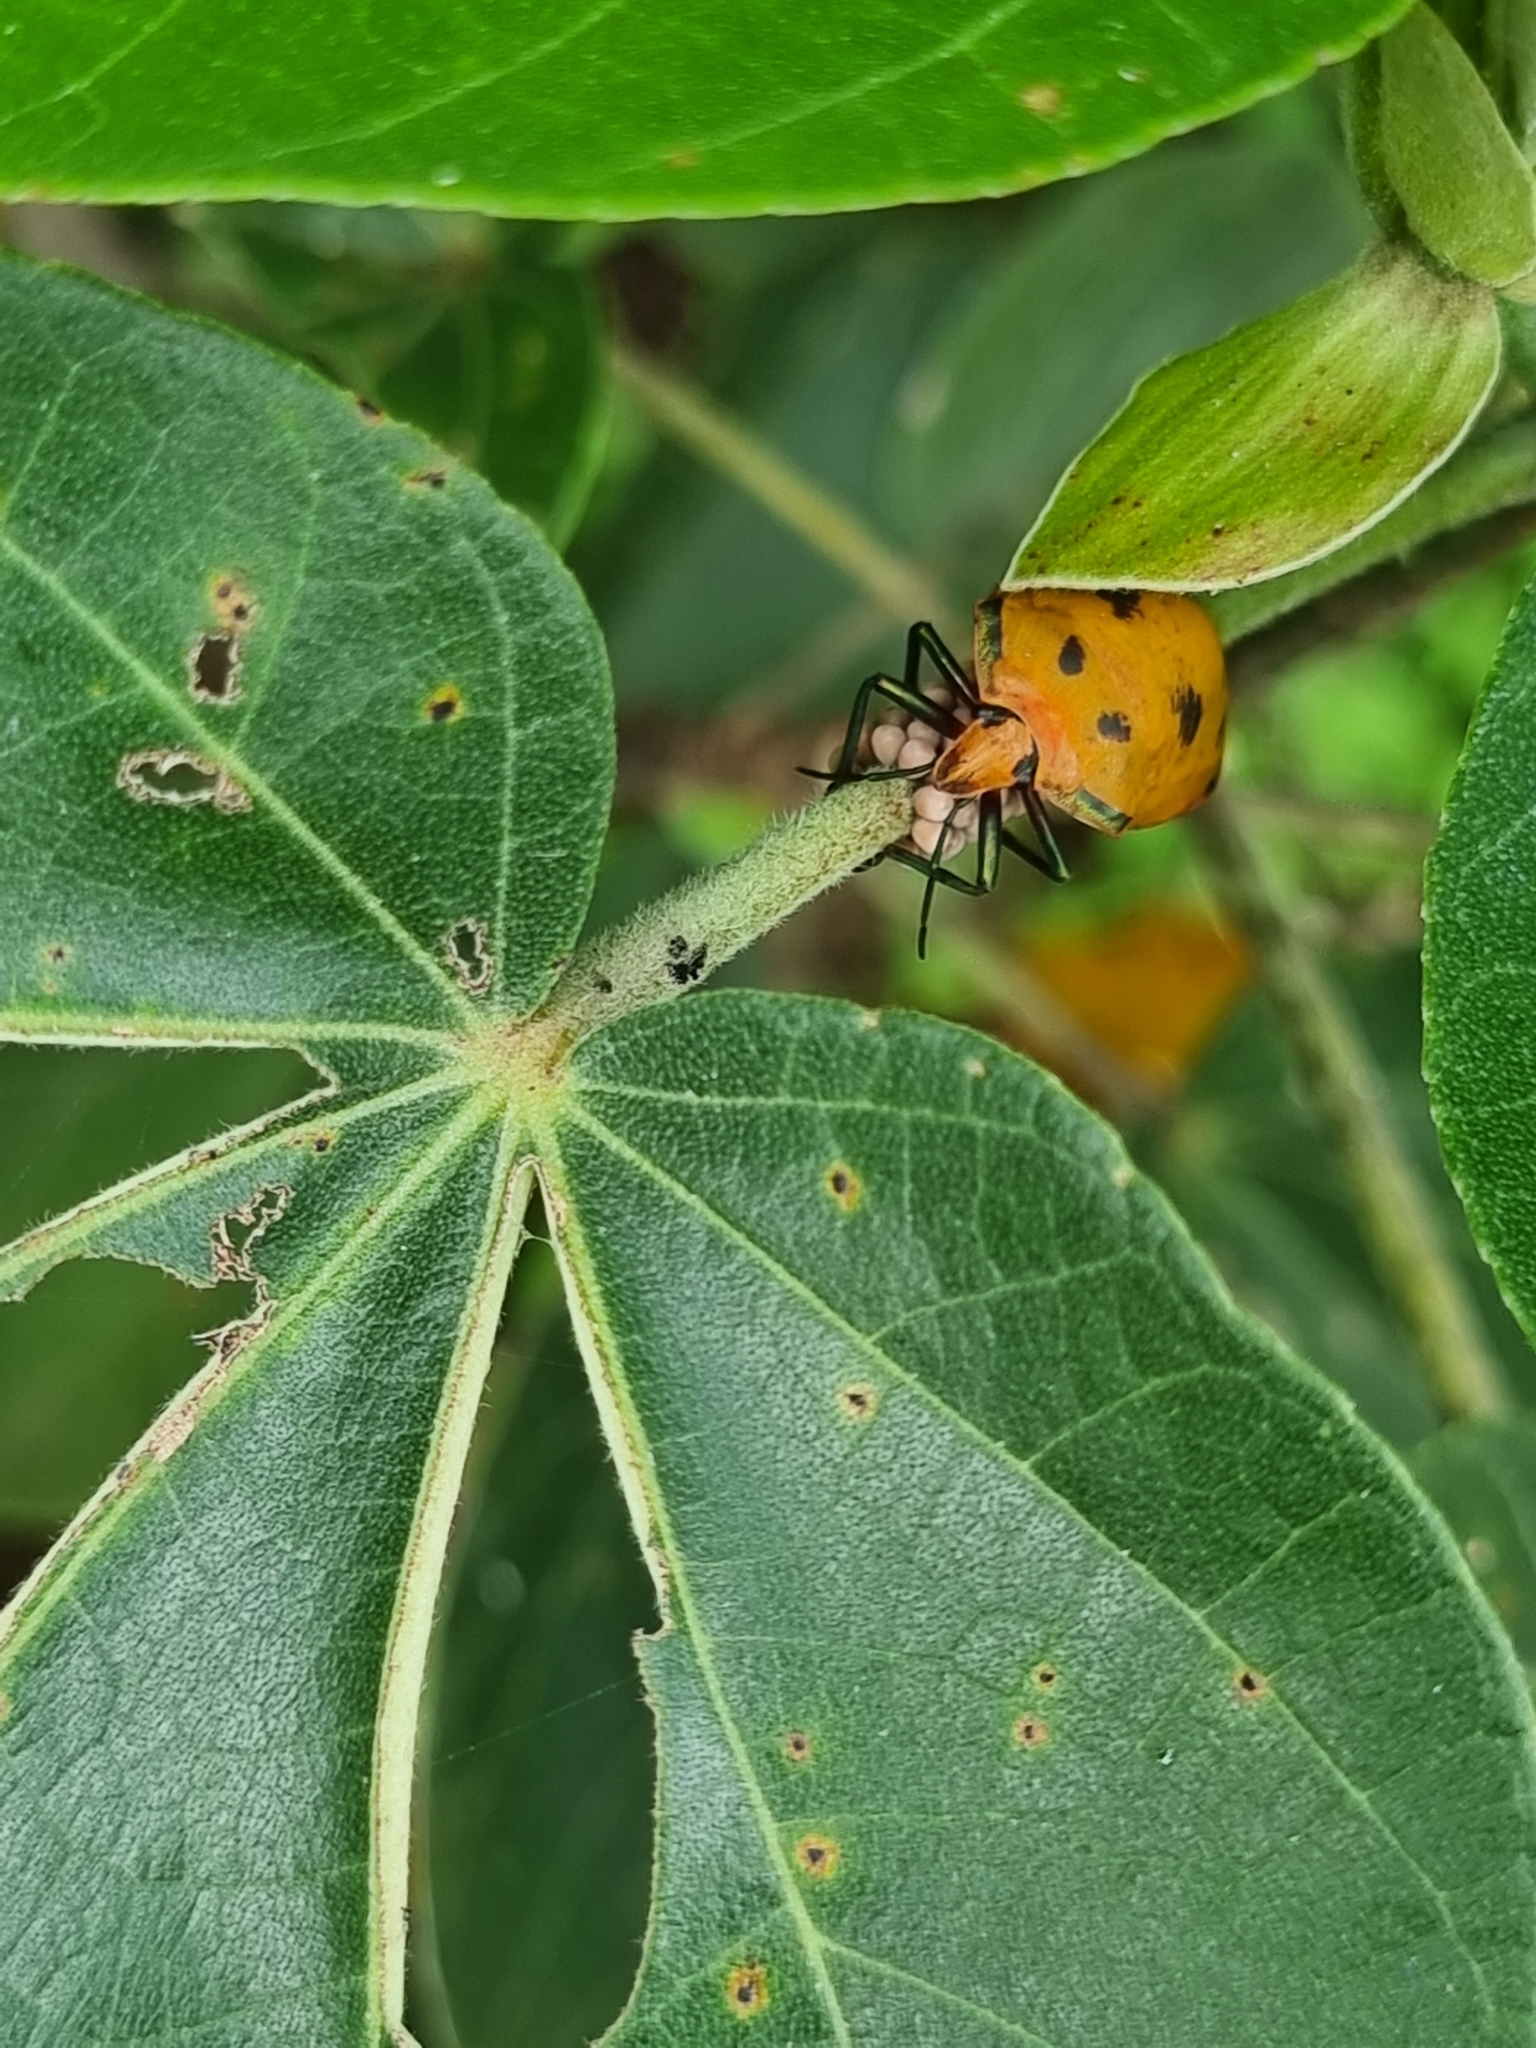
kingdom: Animalia
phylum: Arthropoda
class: Insecta
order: Hemiptera
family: Scutelleridae
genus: Tectocoris
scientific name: Tectocoris diophthalmus
